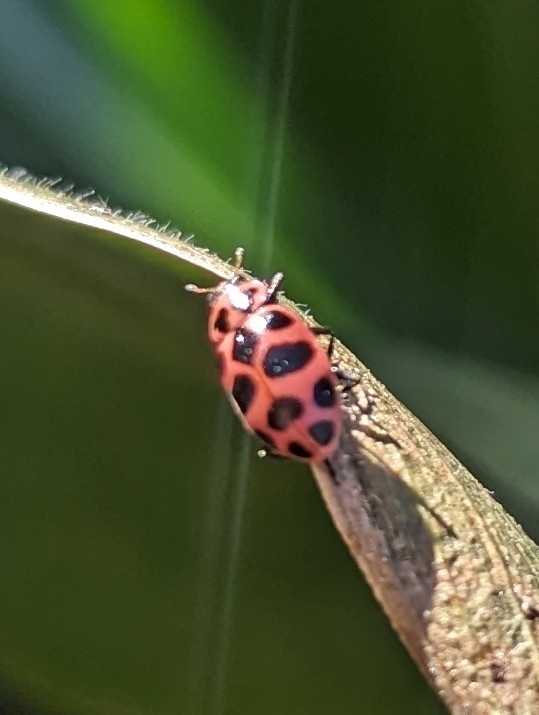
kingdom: Animalia
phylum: Arthropoda
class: Insecta
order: Coleoptera
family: Coccinellidae
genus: Coleomegilla
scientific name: Coleomegilla maculata
